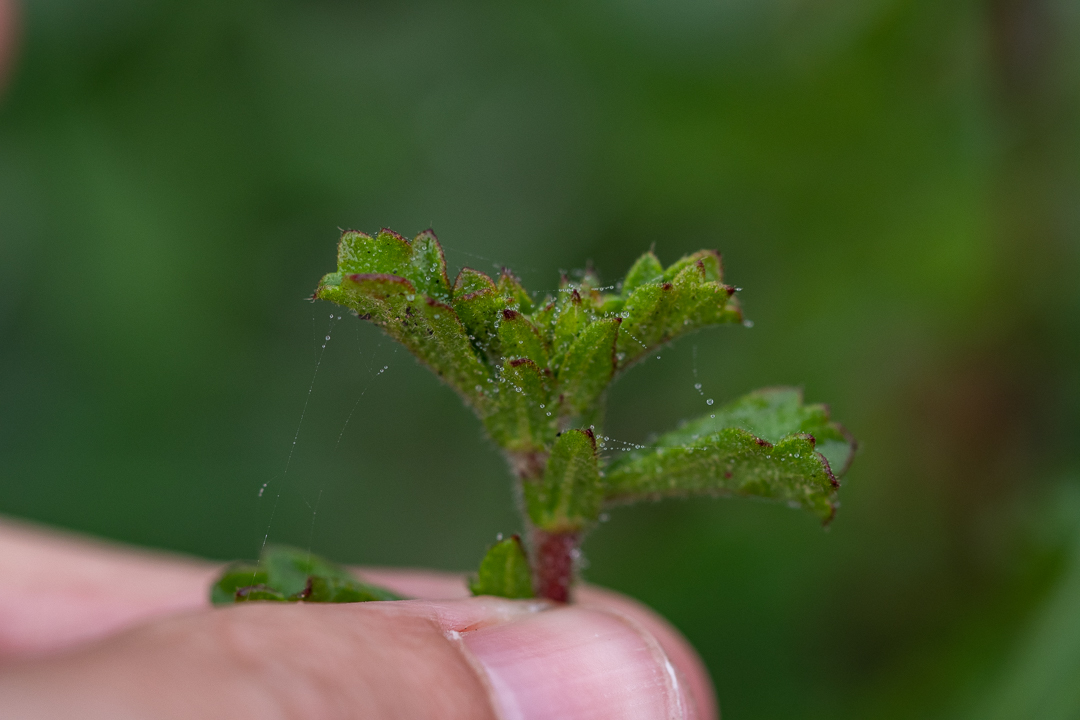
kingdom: Plantae
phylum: Tracheophyta
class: Magnoliopsida
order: Malvales
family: Malvaceae
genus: Hermannia
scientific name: Hermannia scabra
